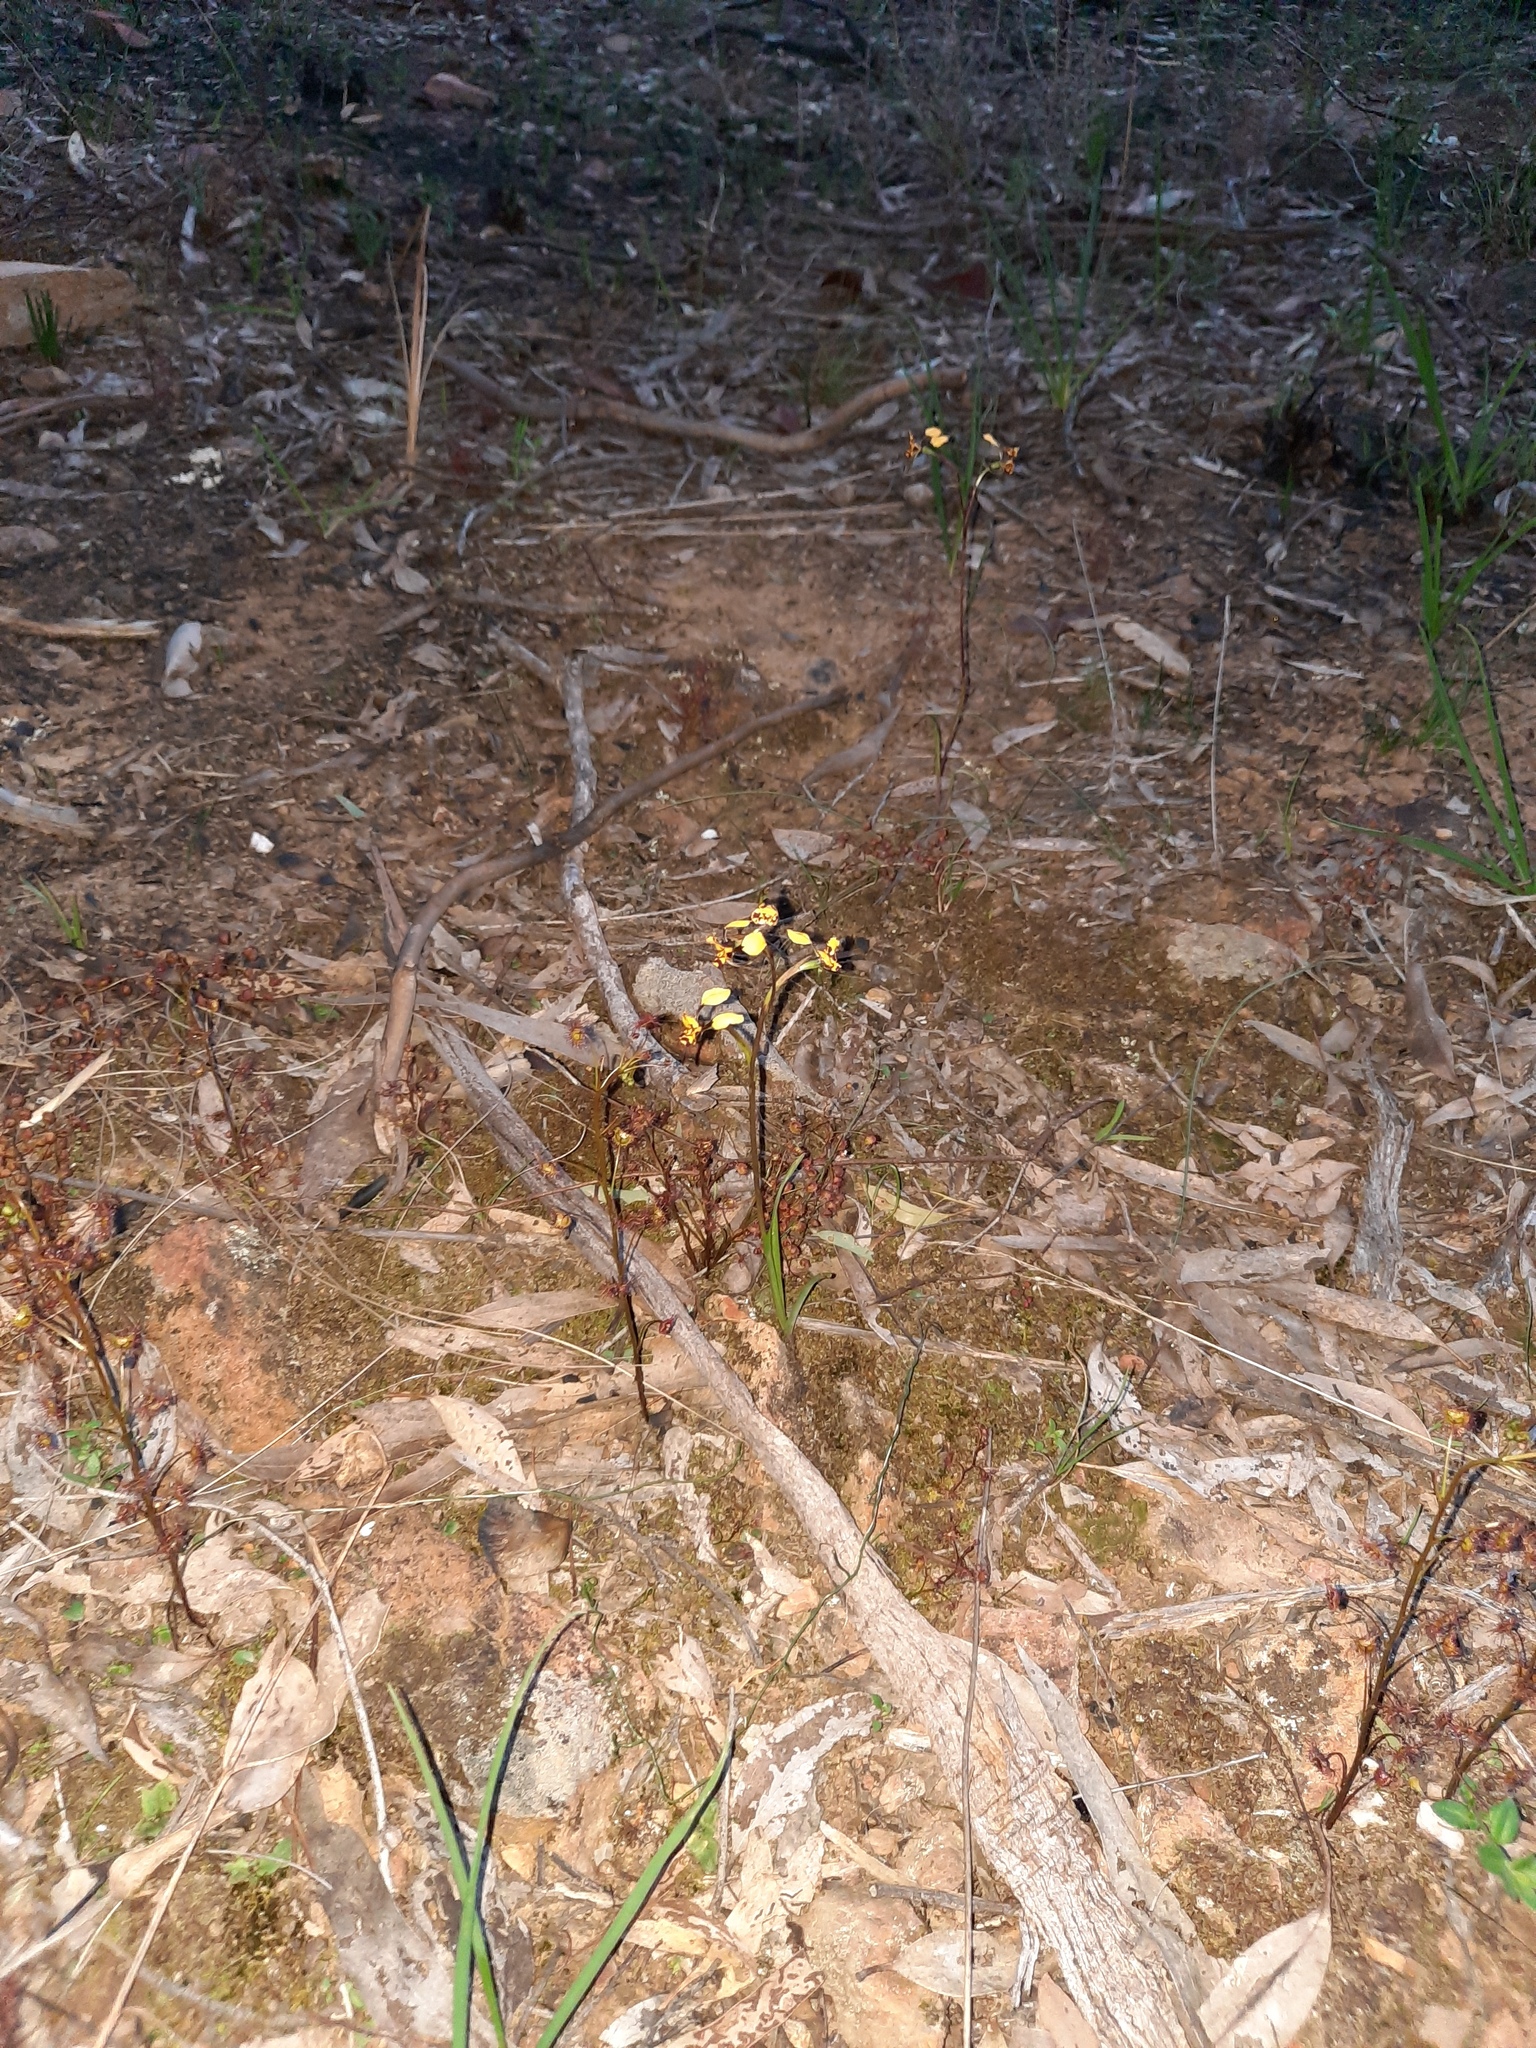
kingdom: Plantae
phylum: Tracheophyta
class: Liliopsida
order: Asparagales
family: Orchidaceae
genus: Diuris
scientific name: Diuris pardina
